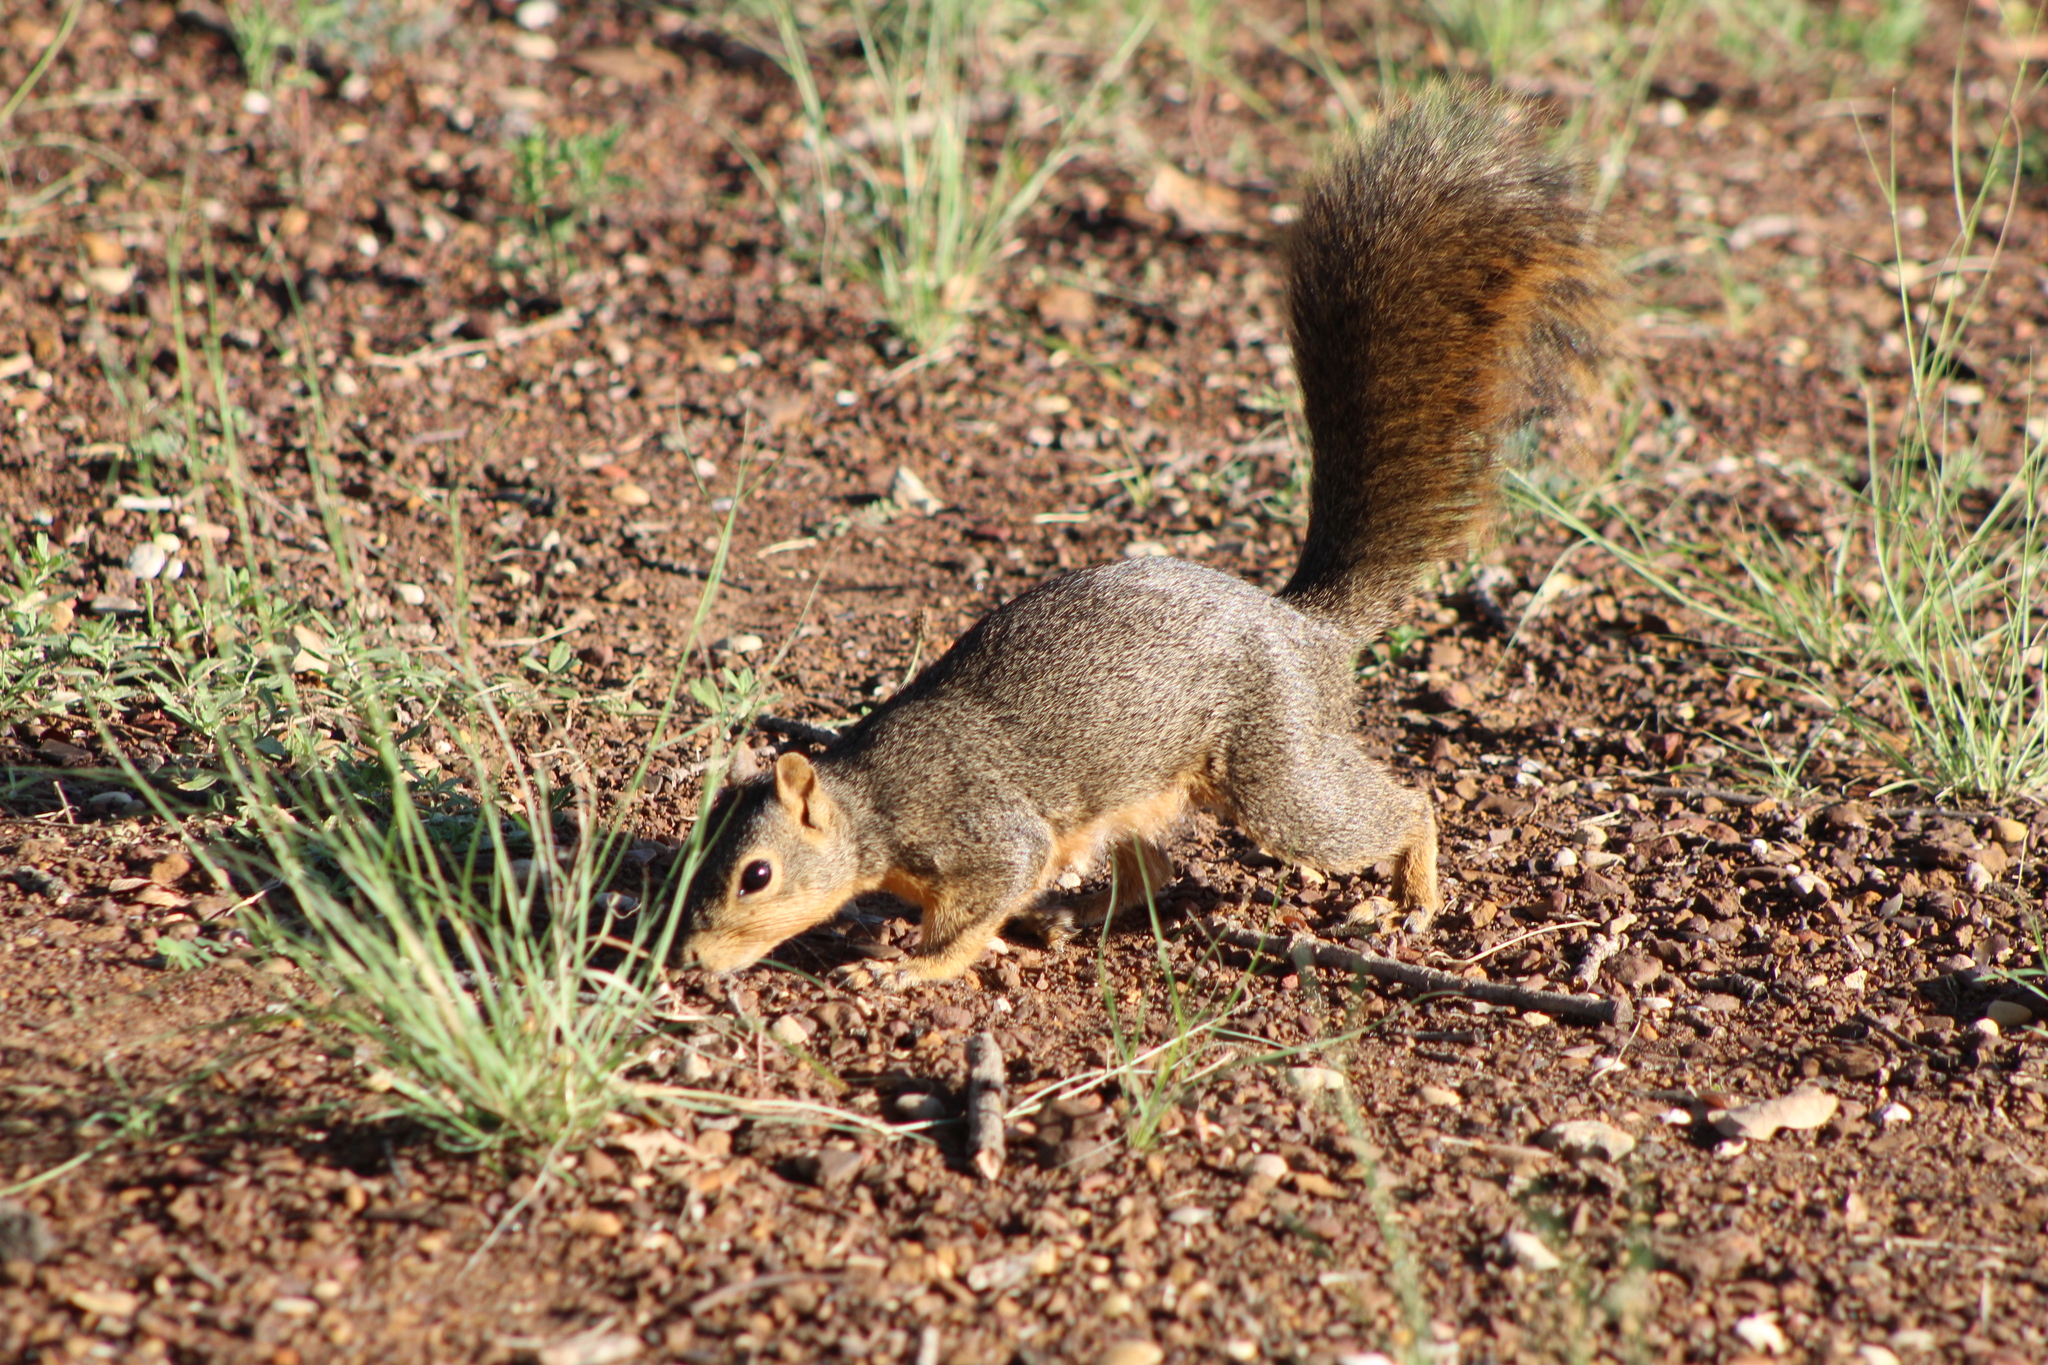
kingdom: Animalia
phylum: Chordata
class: Mammalia
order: Rodentia
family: Sciuridae
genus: Sciurus
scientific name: Sciurus niger
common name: Fox squirrel
